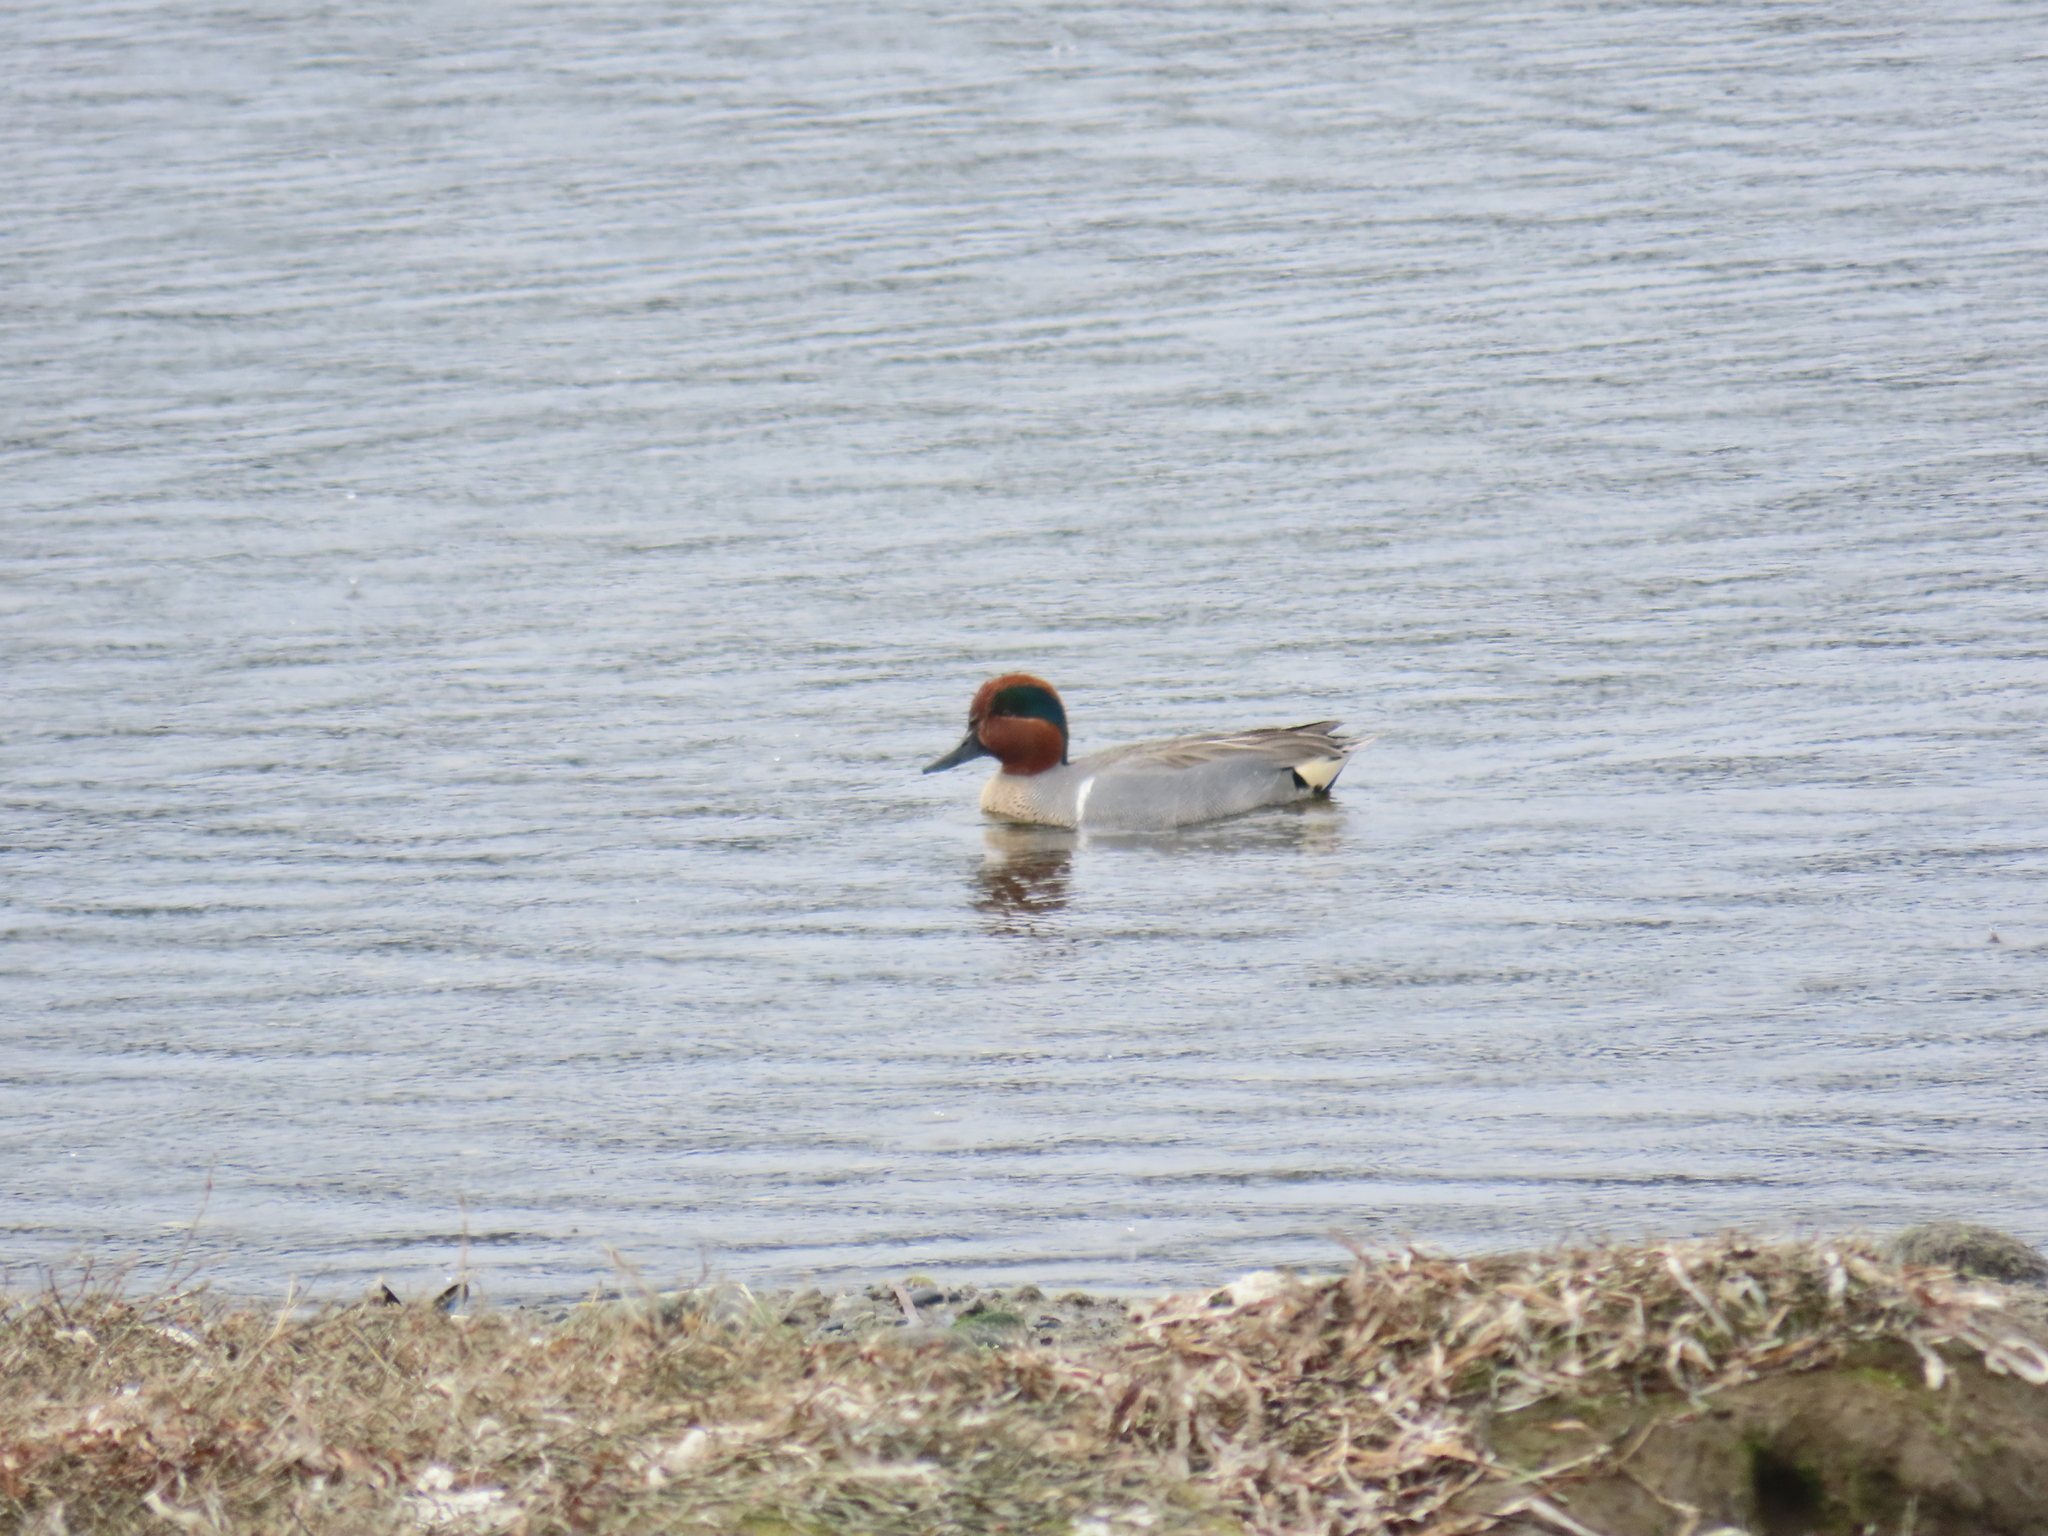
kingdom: Animalia
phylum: Chordata
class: Aves
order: Anseriformes
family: Anatidae
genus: Anas
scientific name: Anas crecca
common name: Eurasian teal
